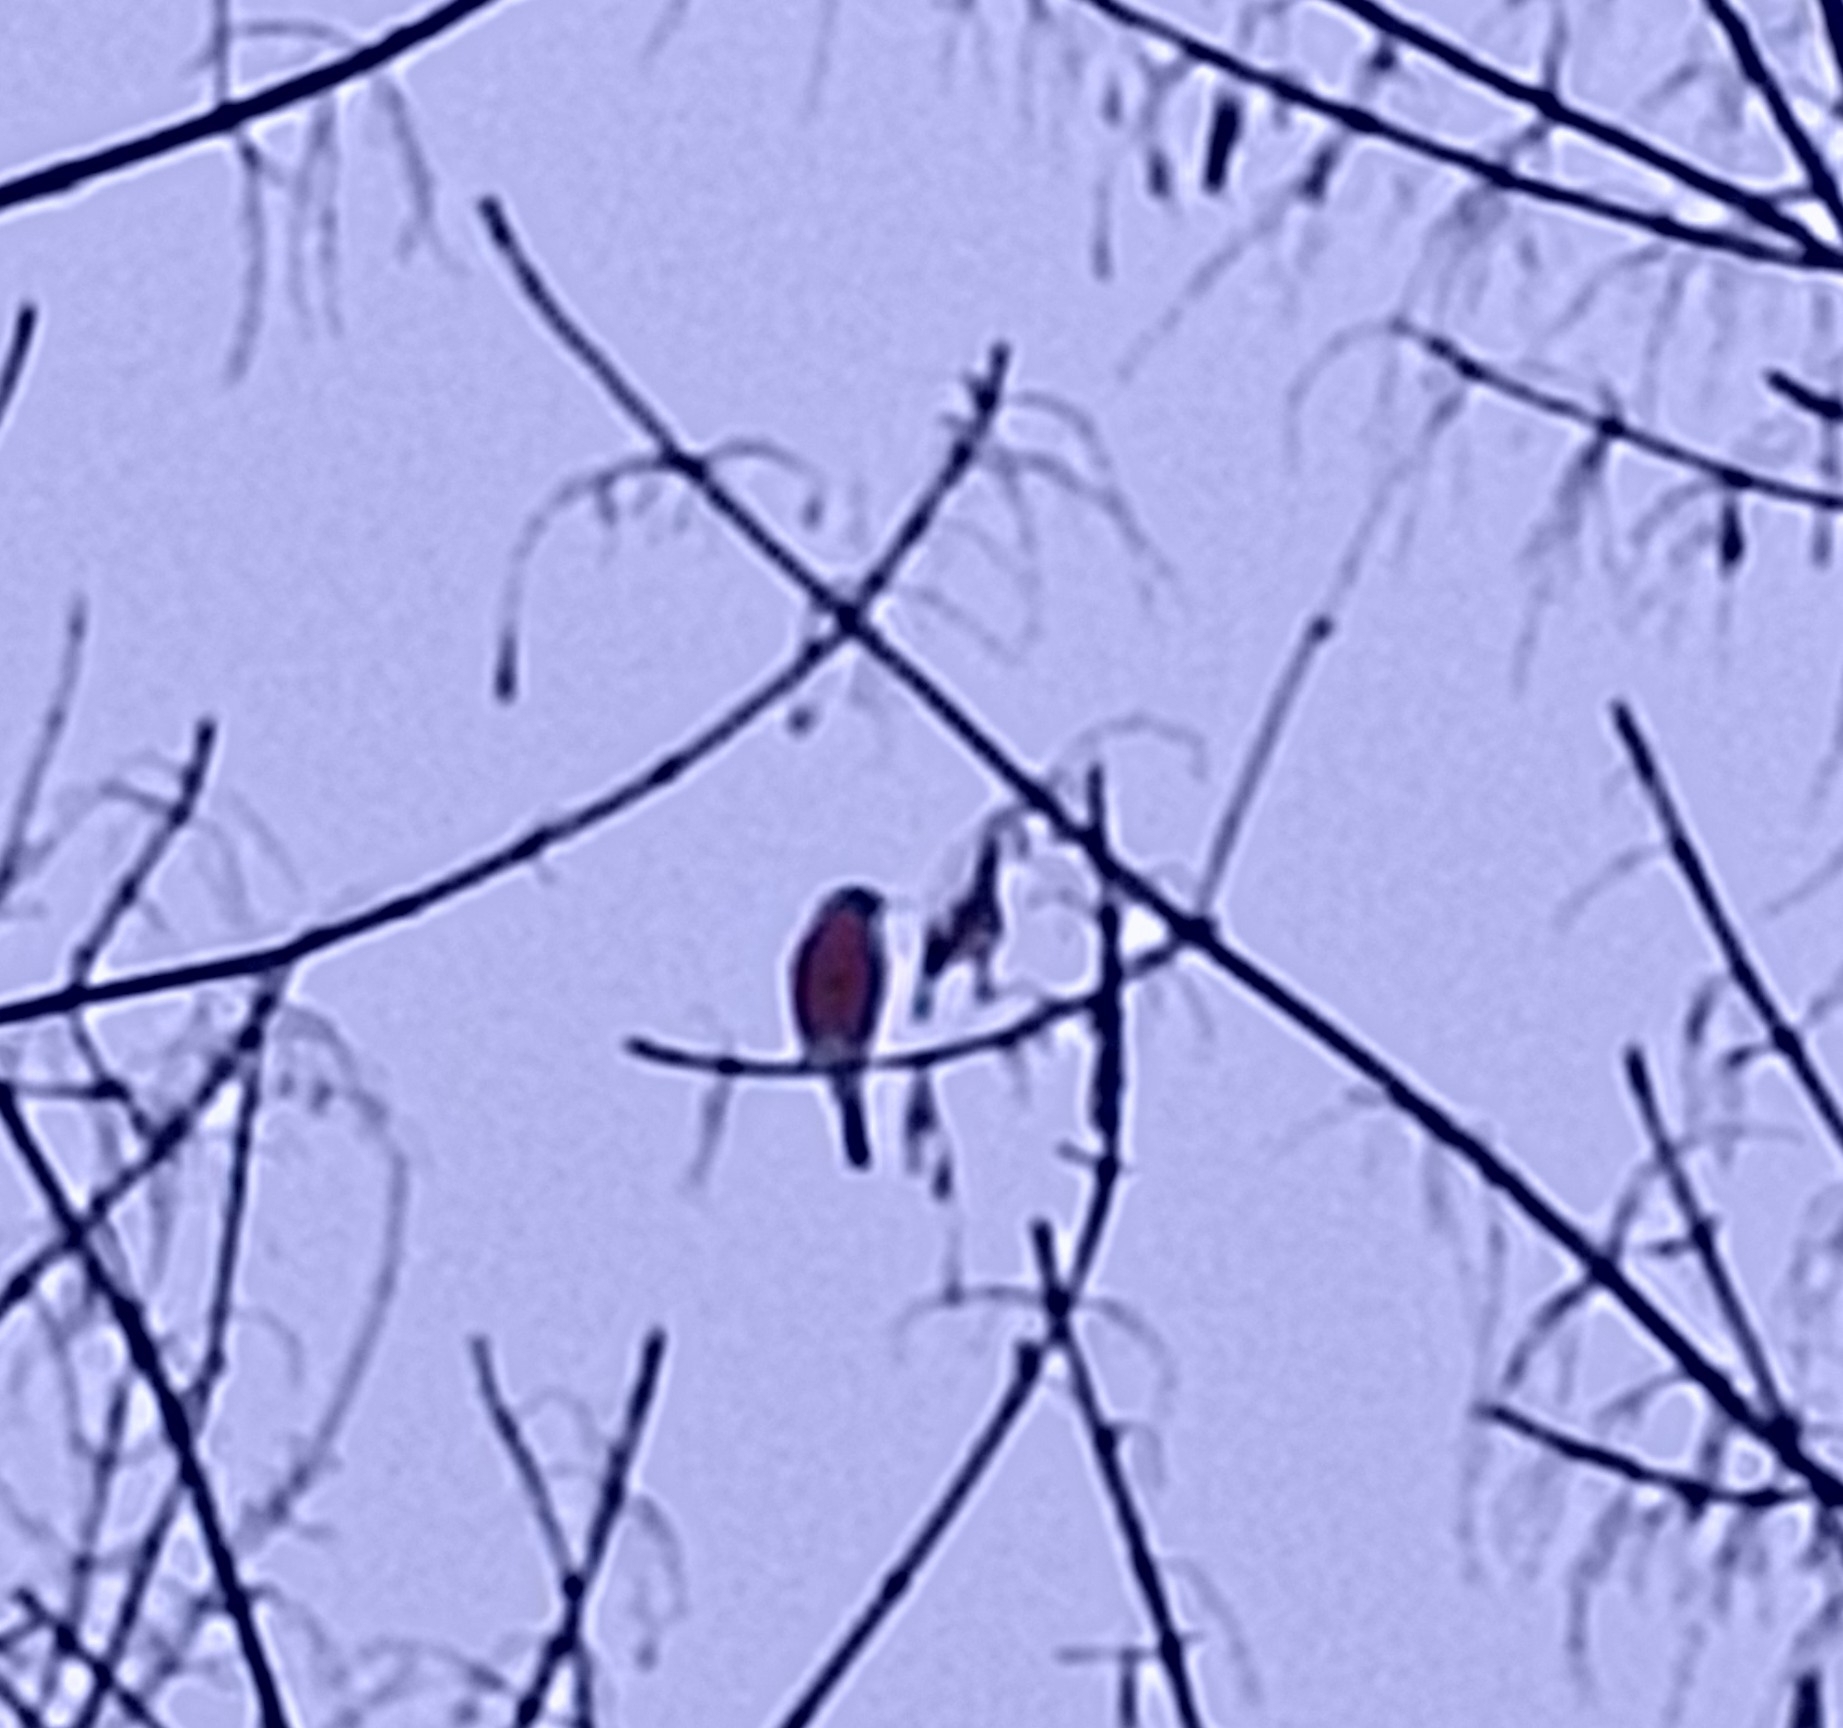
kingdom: Animalia
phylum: Chordata
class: Aves
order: Passeriformes
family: Fringillidae
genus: Pyrrhula
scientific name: Pyrrhula pyrrhula
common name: Eurasian bullfinch
